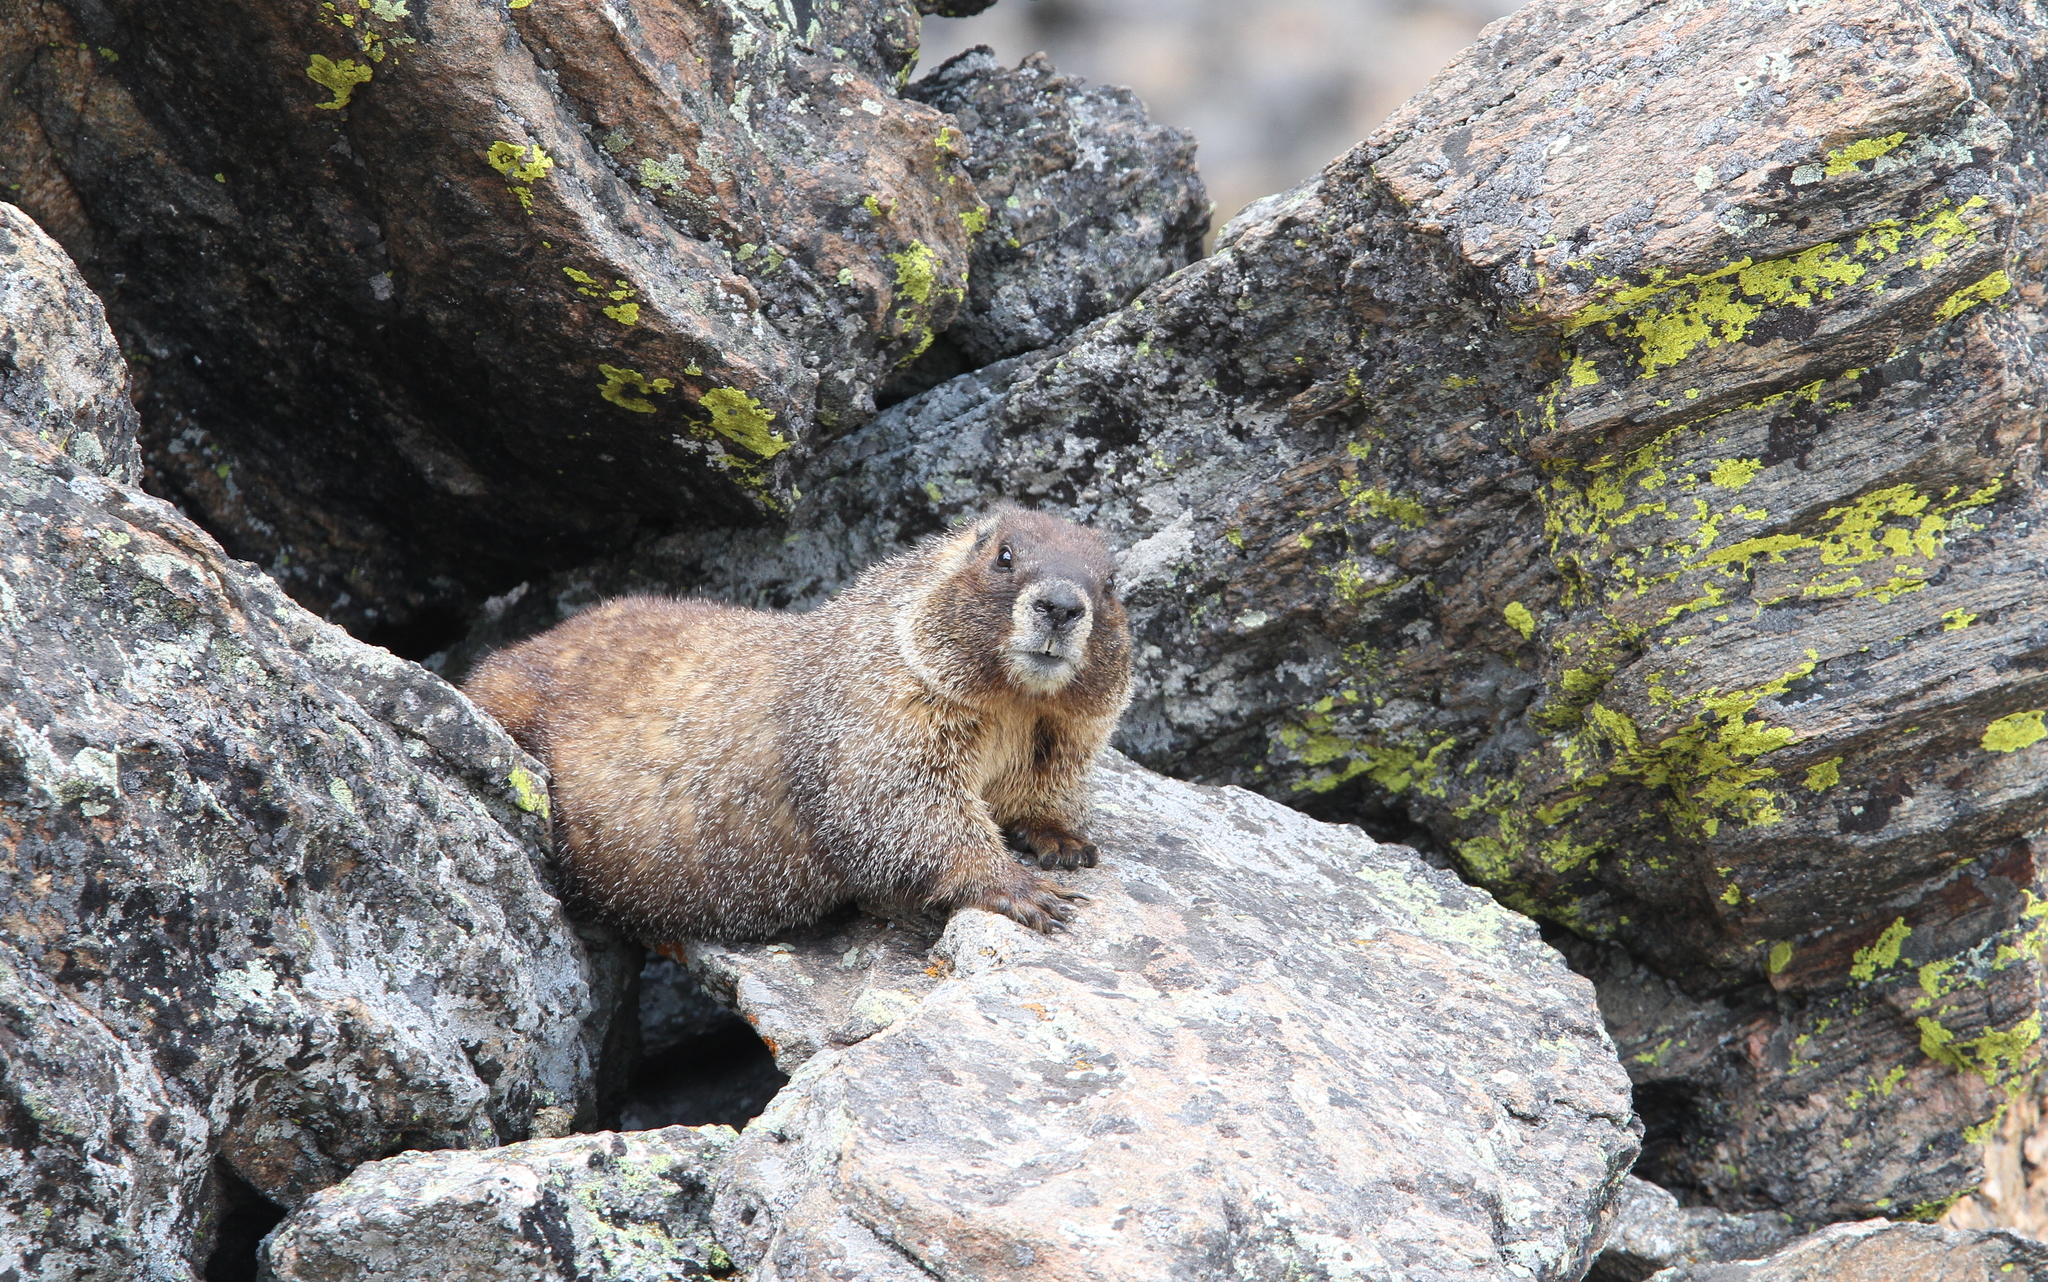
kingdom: Animalia
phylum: Chordata
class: Mammalia
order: Rodentia
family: Sciuridae
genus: Marmota
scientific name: Marmota flaviventris
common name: Yellow-bellied marmot
